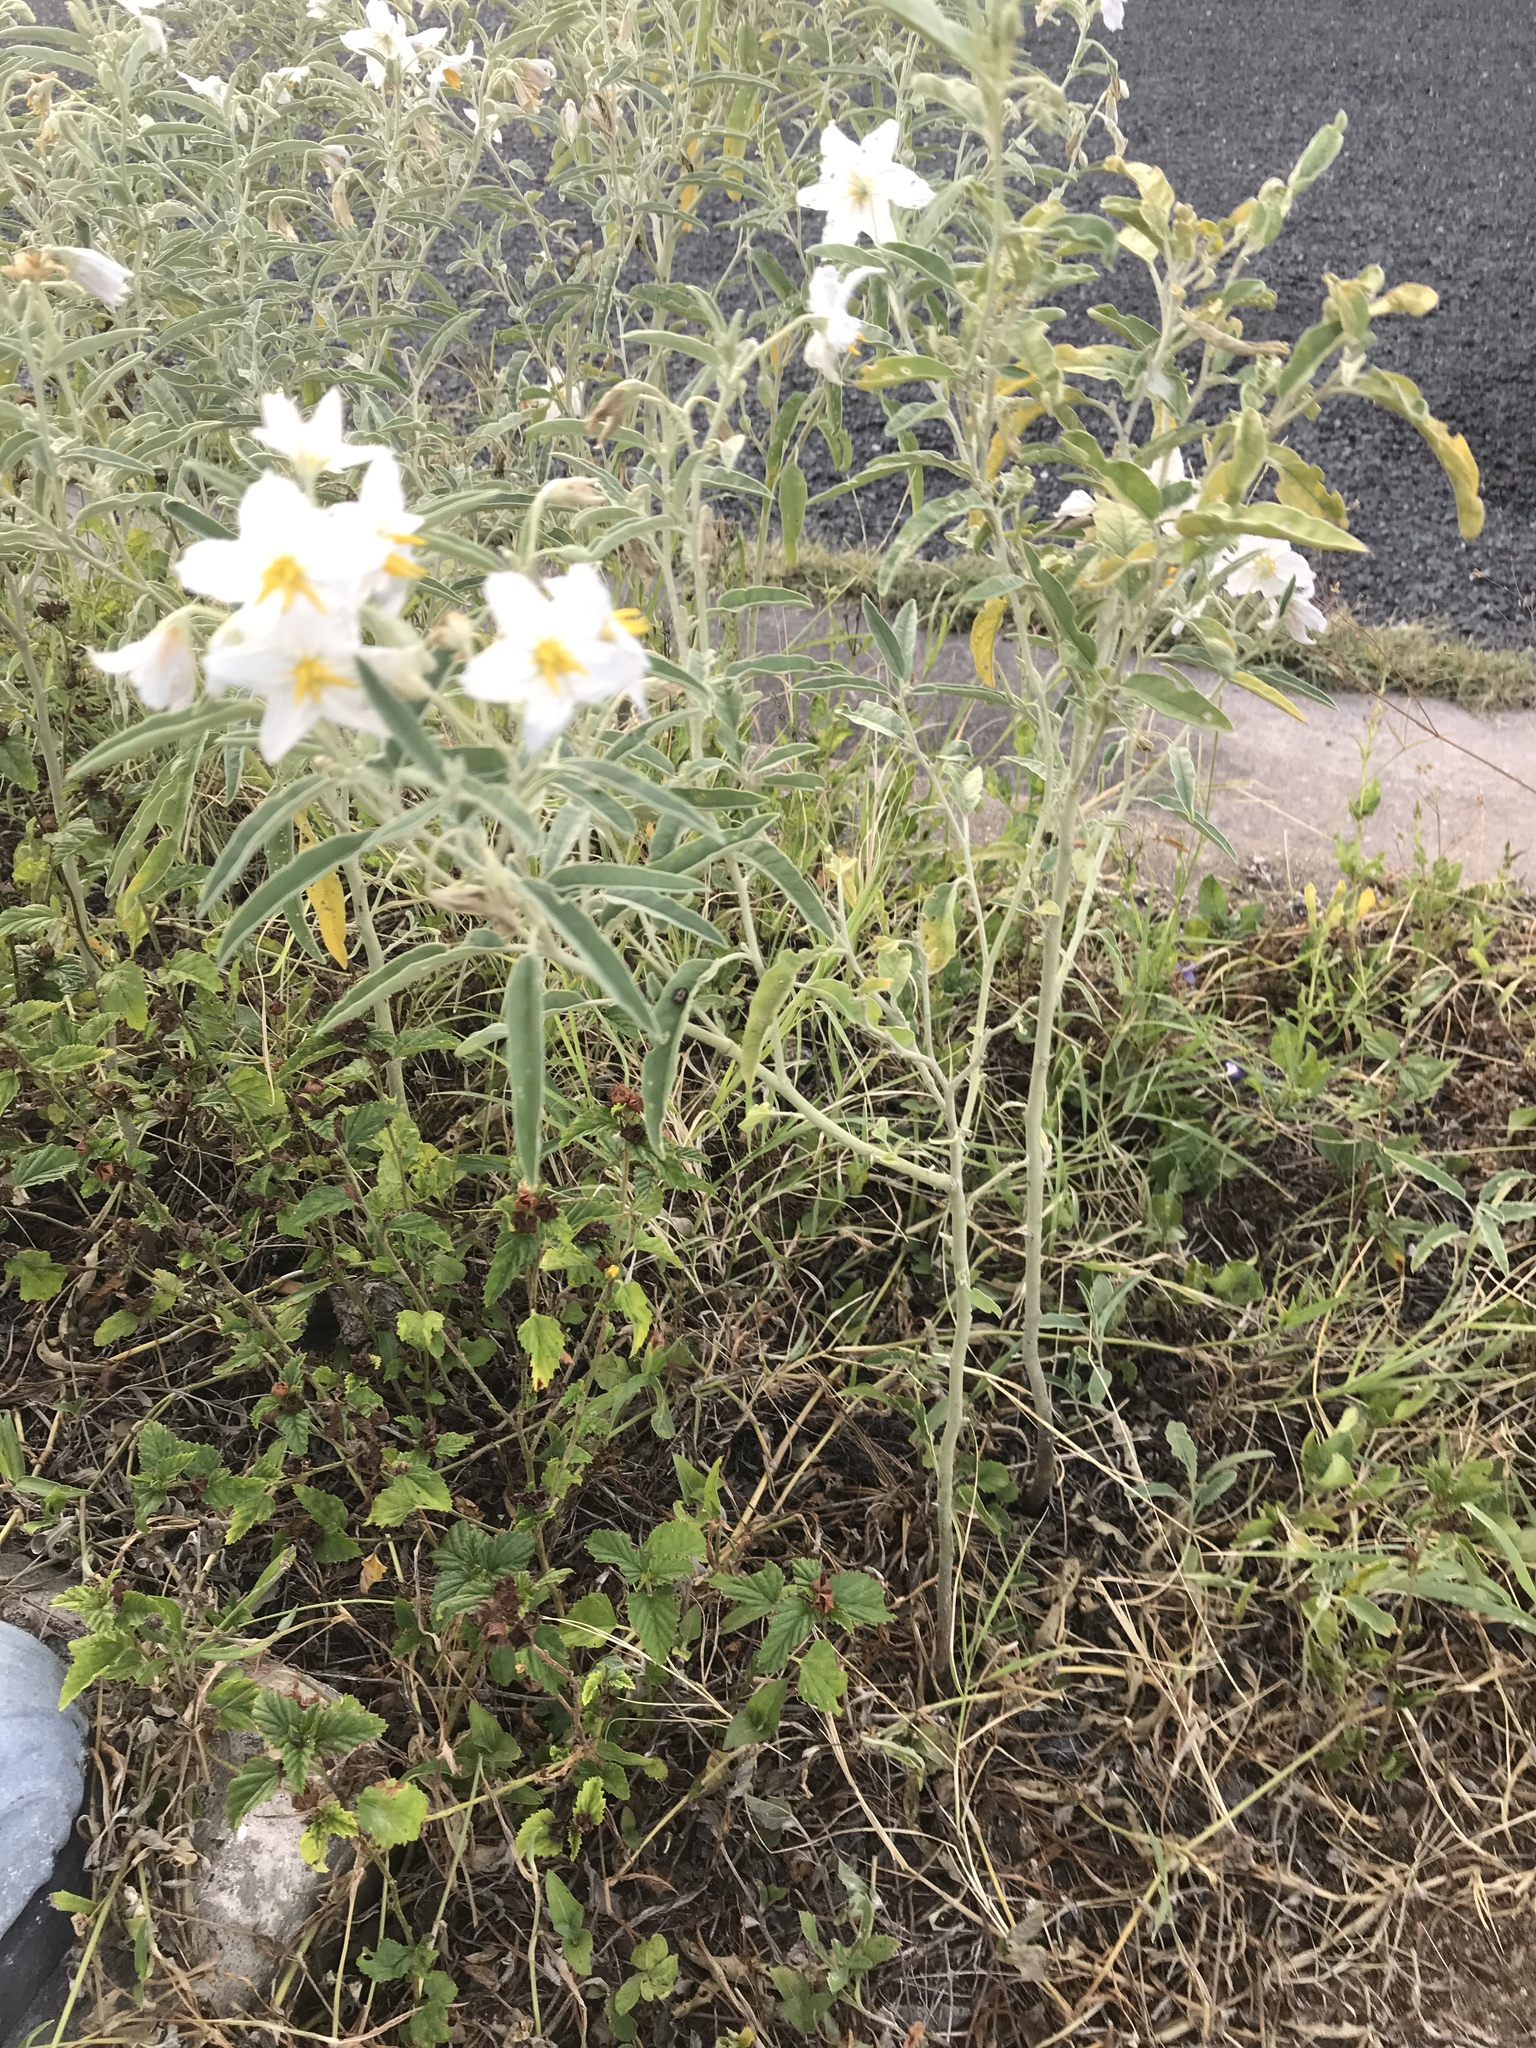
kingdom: Plantae
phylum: Tracheophyta
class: Magnoliopsida
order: Solanales
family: Solanaceae
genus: Solanum
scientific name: Solanum elaeagnifolium
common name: Silverleaf nightshade
